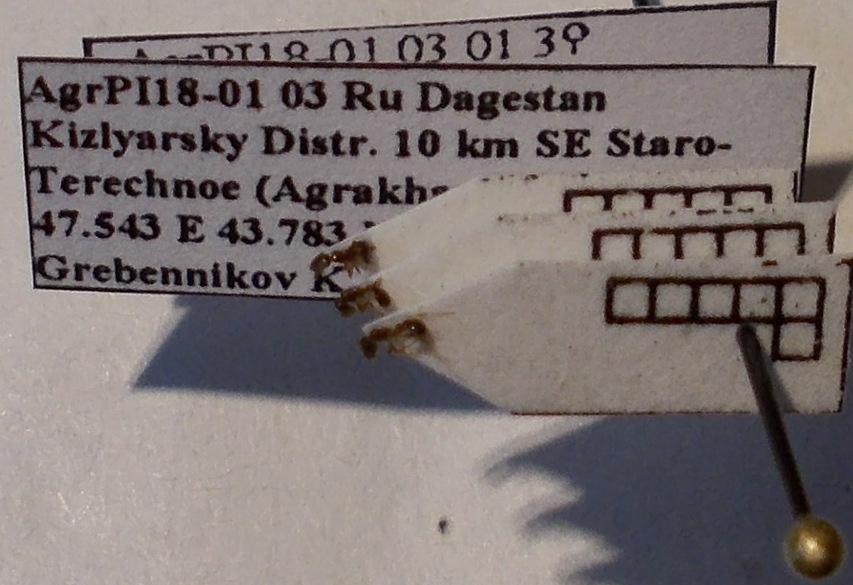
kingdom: Animalia
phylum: Arthropoda
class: Insecta
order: Hymenoptera
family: Formicidae
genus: Cardiocondyla
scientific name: Cardiocondyla sahlbergi
